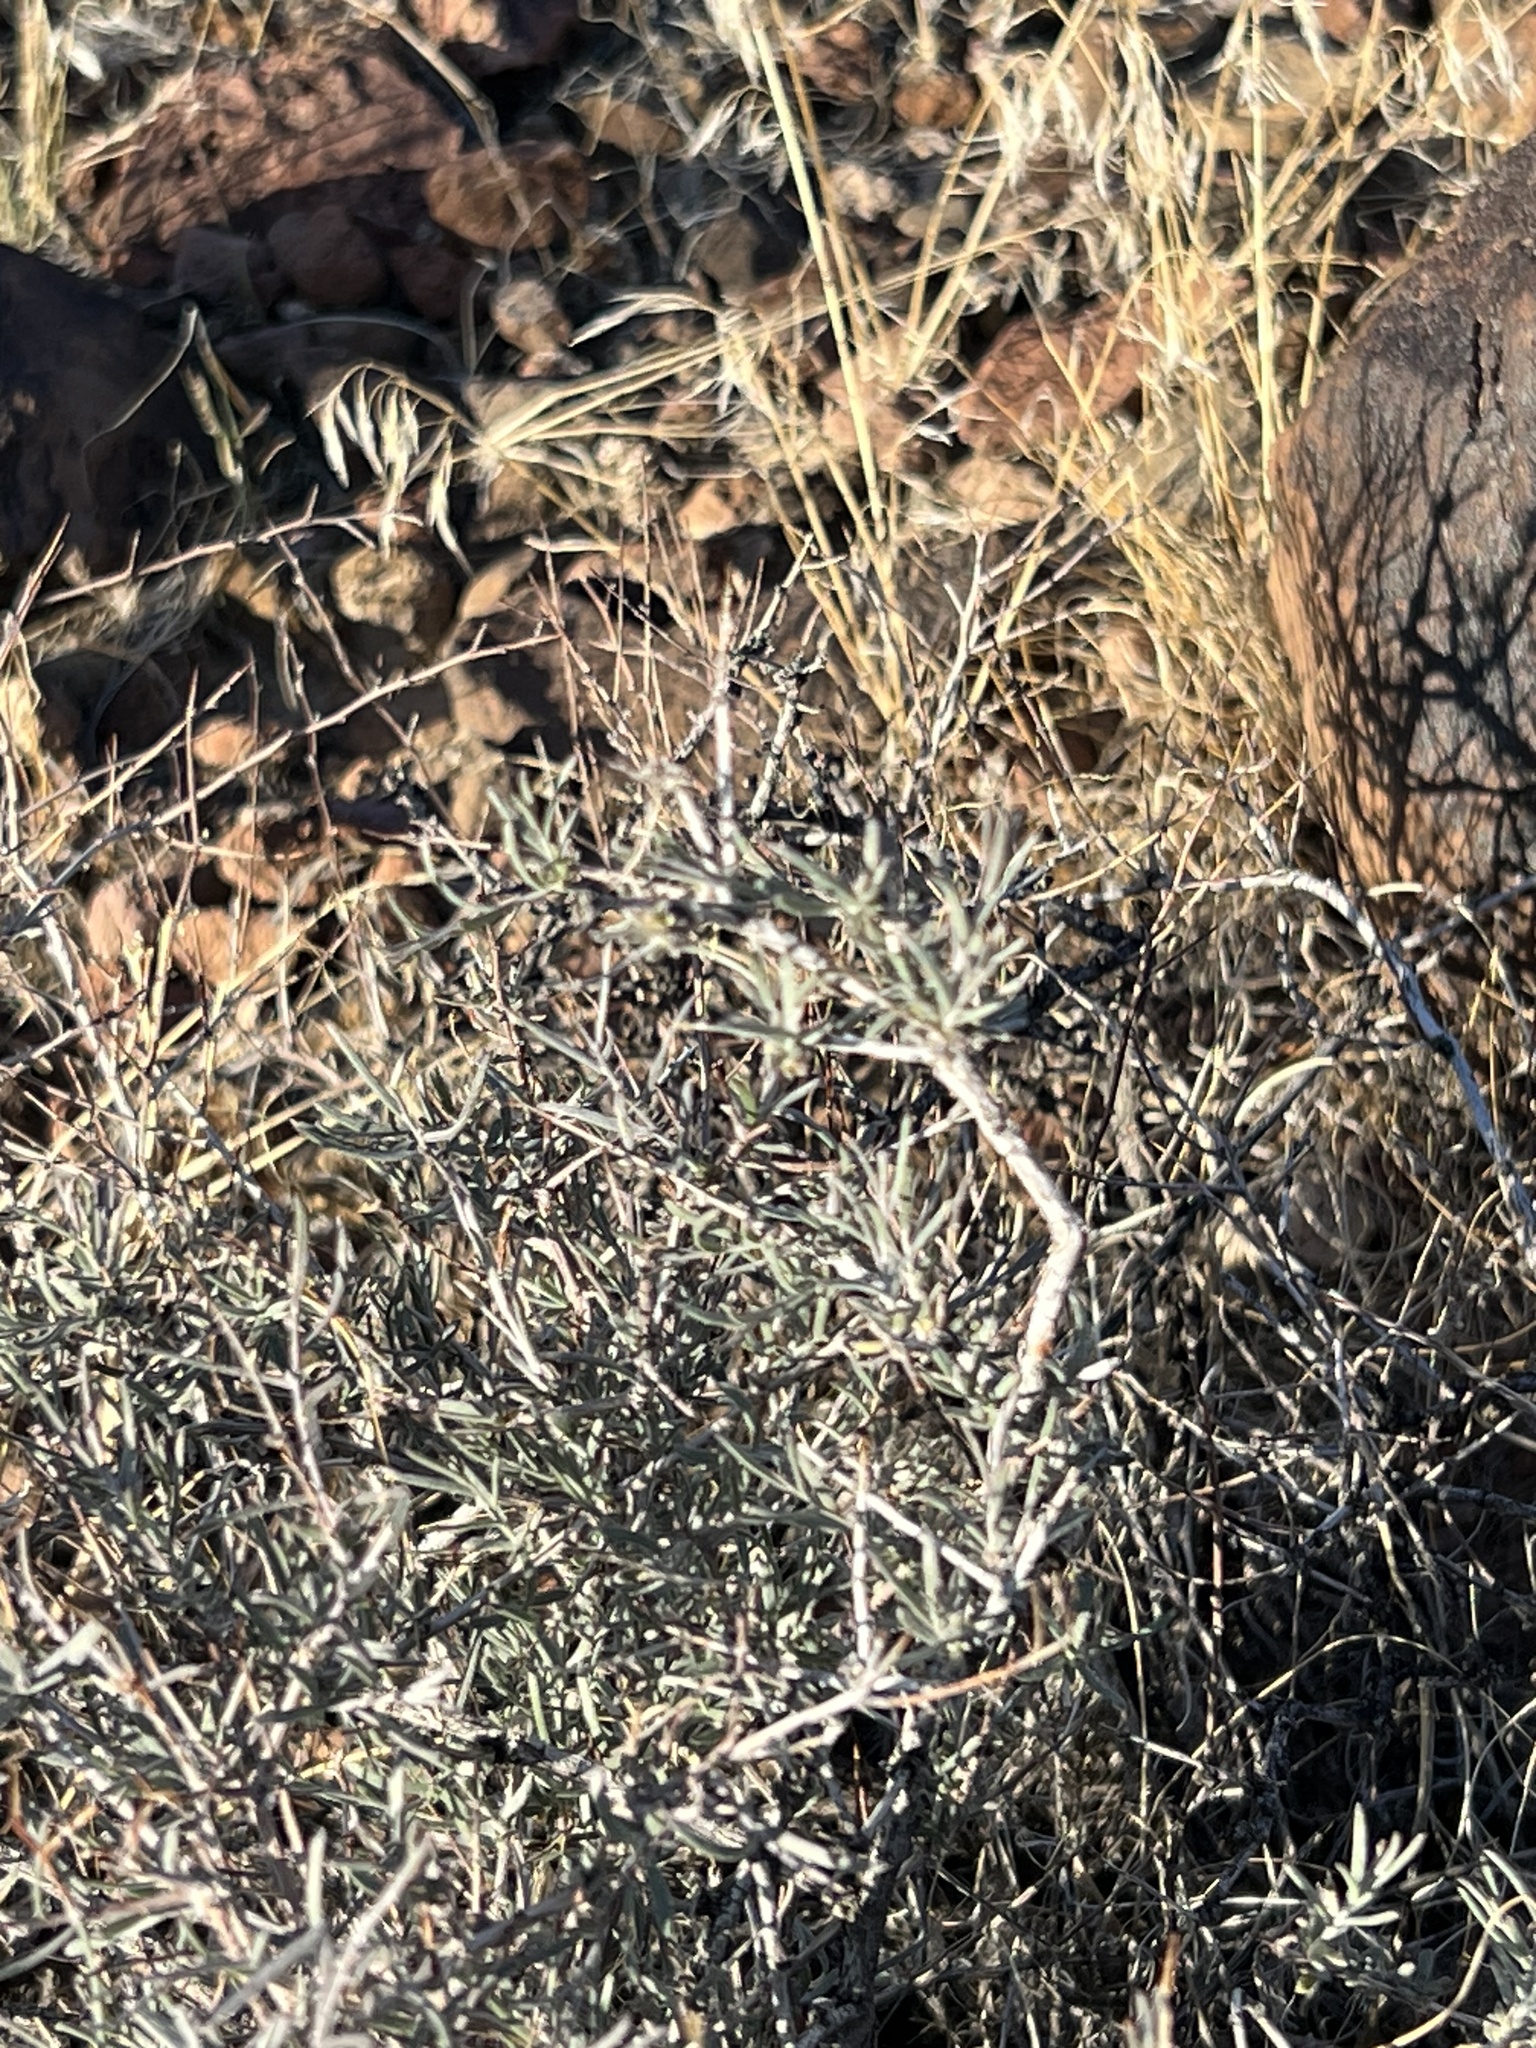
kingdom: Plantae
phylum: Tracheophyta
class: Magnoliopsida
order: Zygophyllales
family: Krameriaceae
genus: Krameria
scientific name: Krameria erecta
